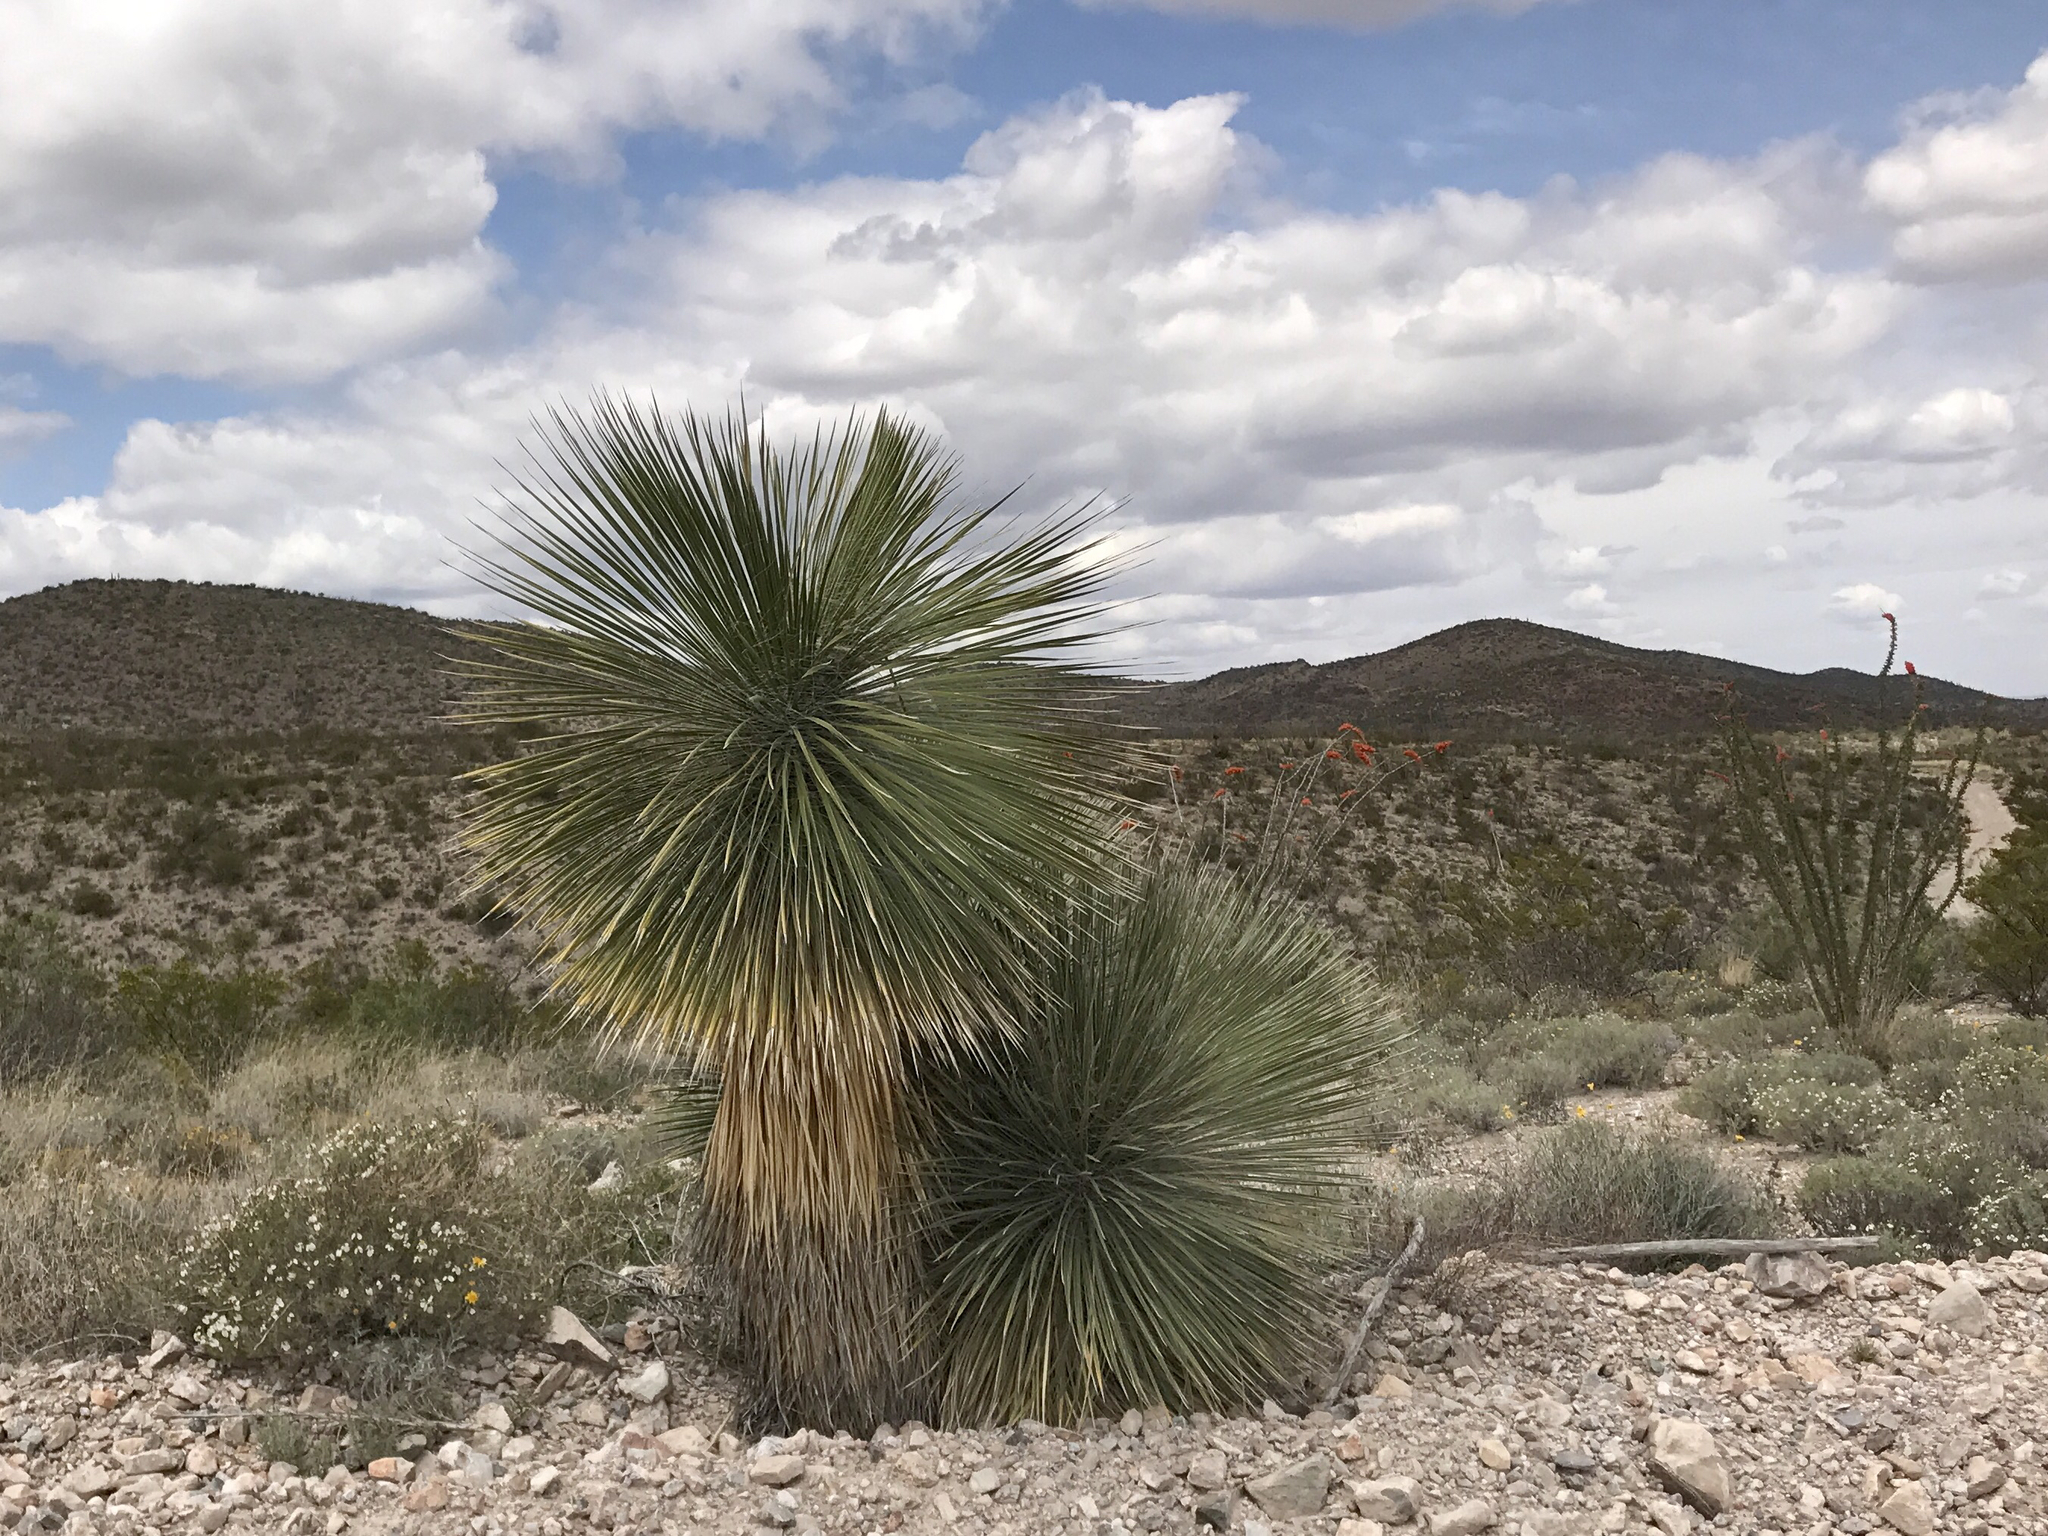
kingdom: Plantae
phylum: Tracheophyta
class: Liliopsida
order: Asparagales
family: Asparagaceae
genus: Yucca
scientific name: Yucca elata
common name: Palmella
